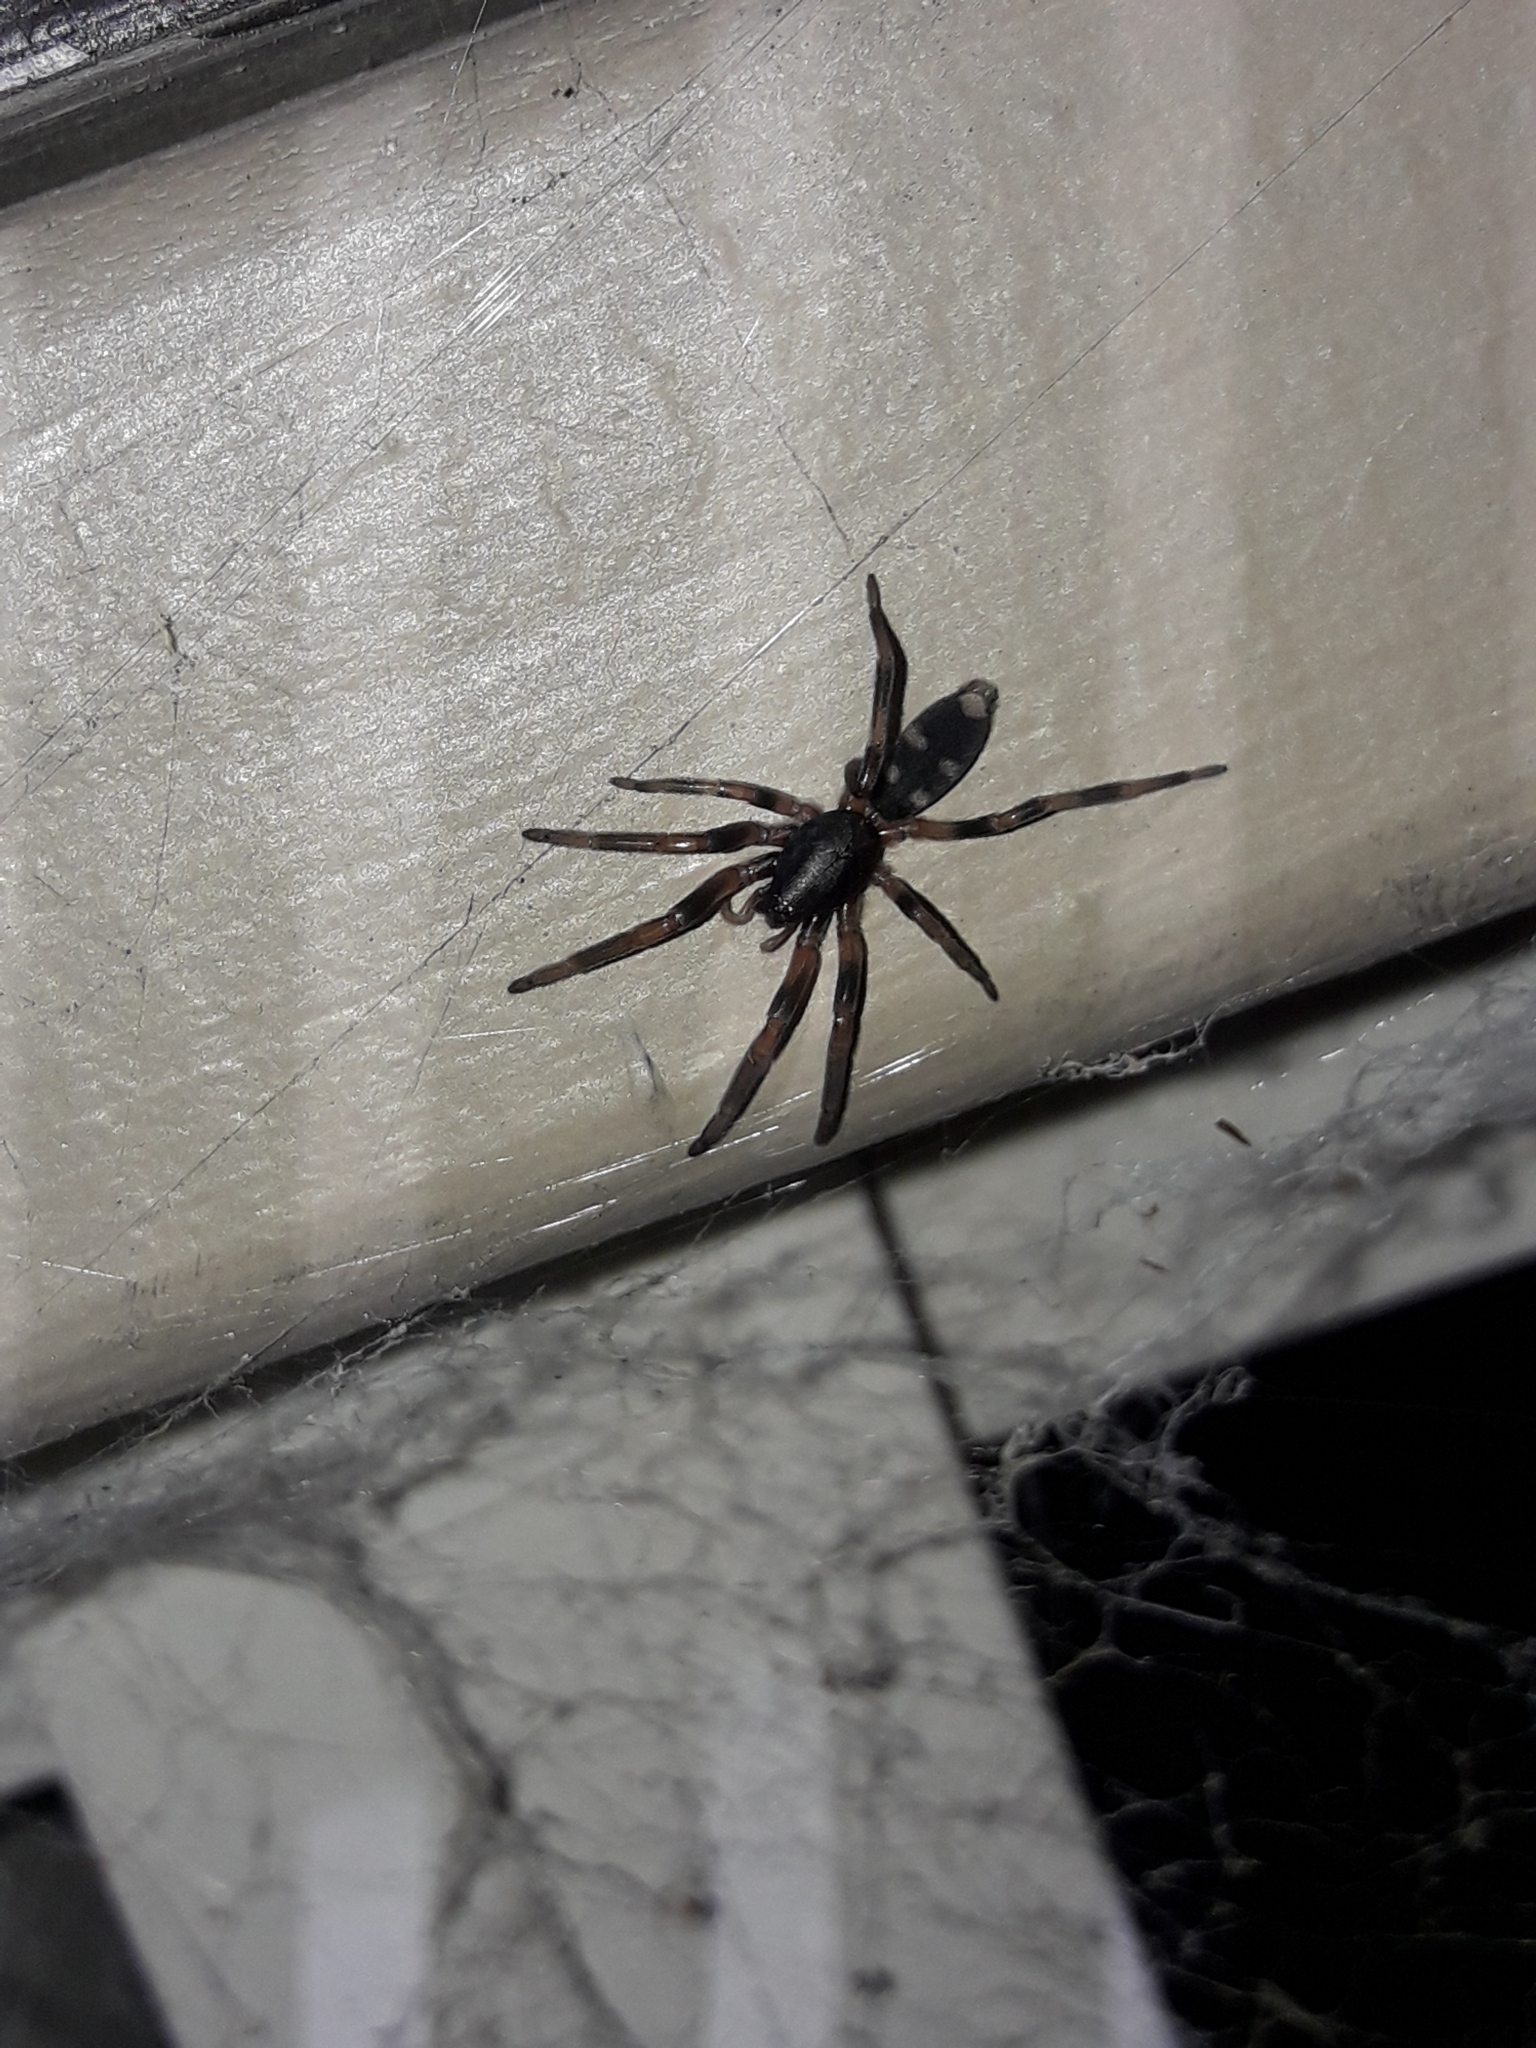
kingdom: Animalia
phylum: Arthropoda
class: Arachnida
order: Araneae
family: Lamponidae
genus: Lampona
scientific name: Lampona cylindrata
